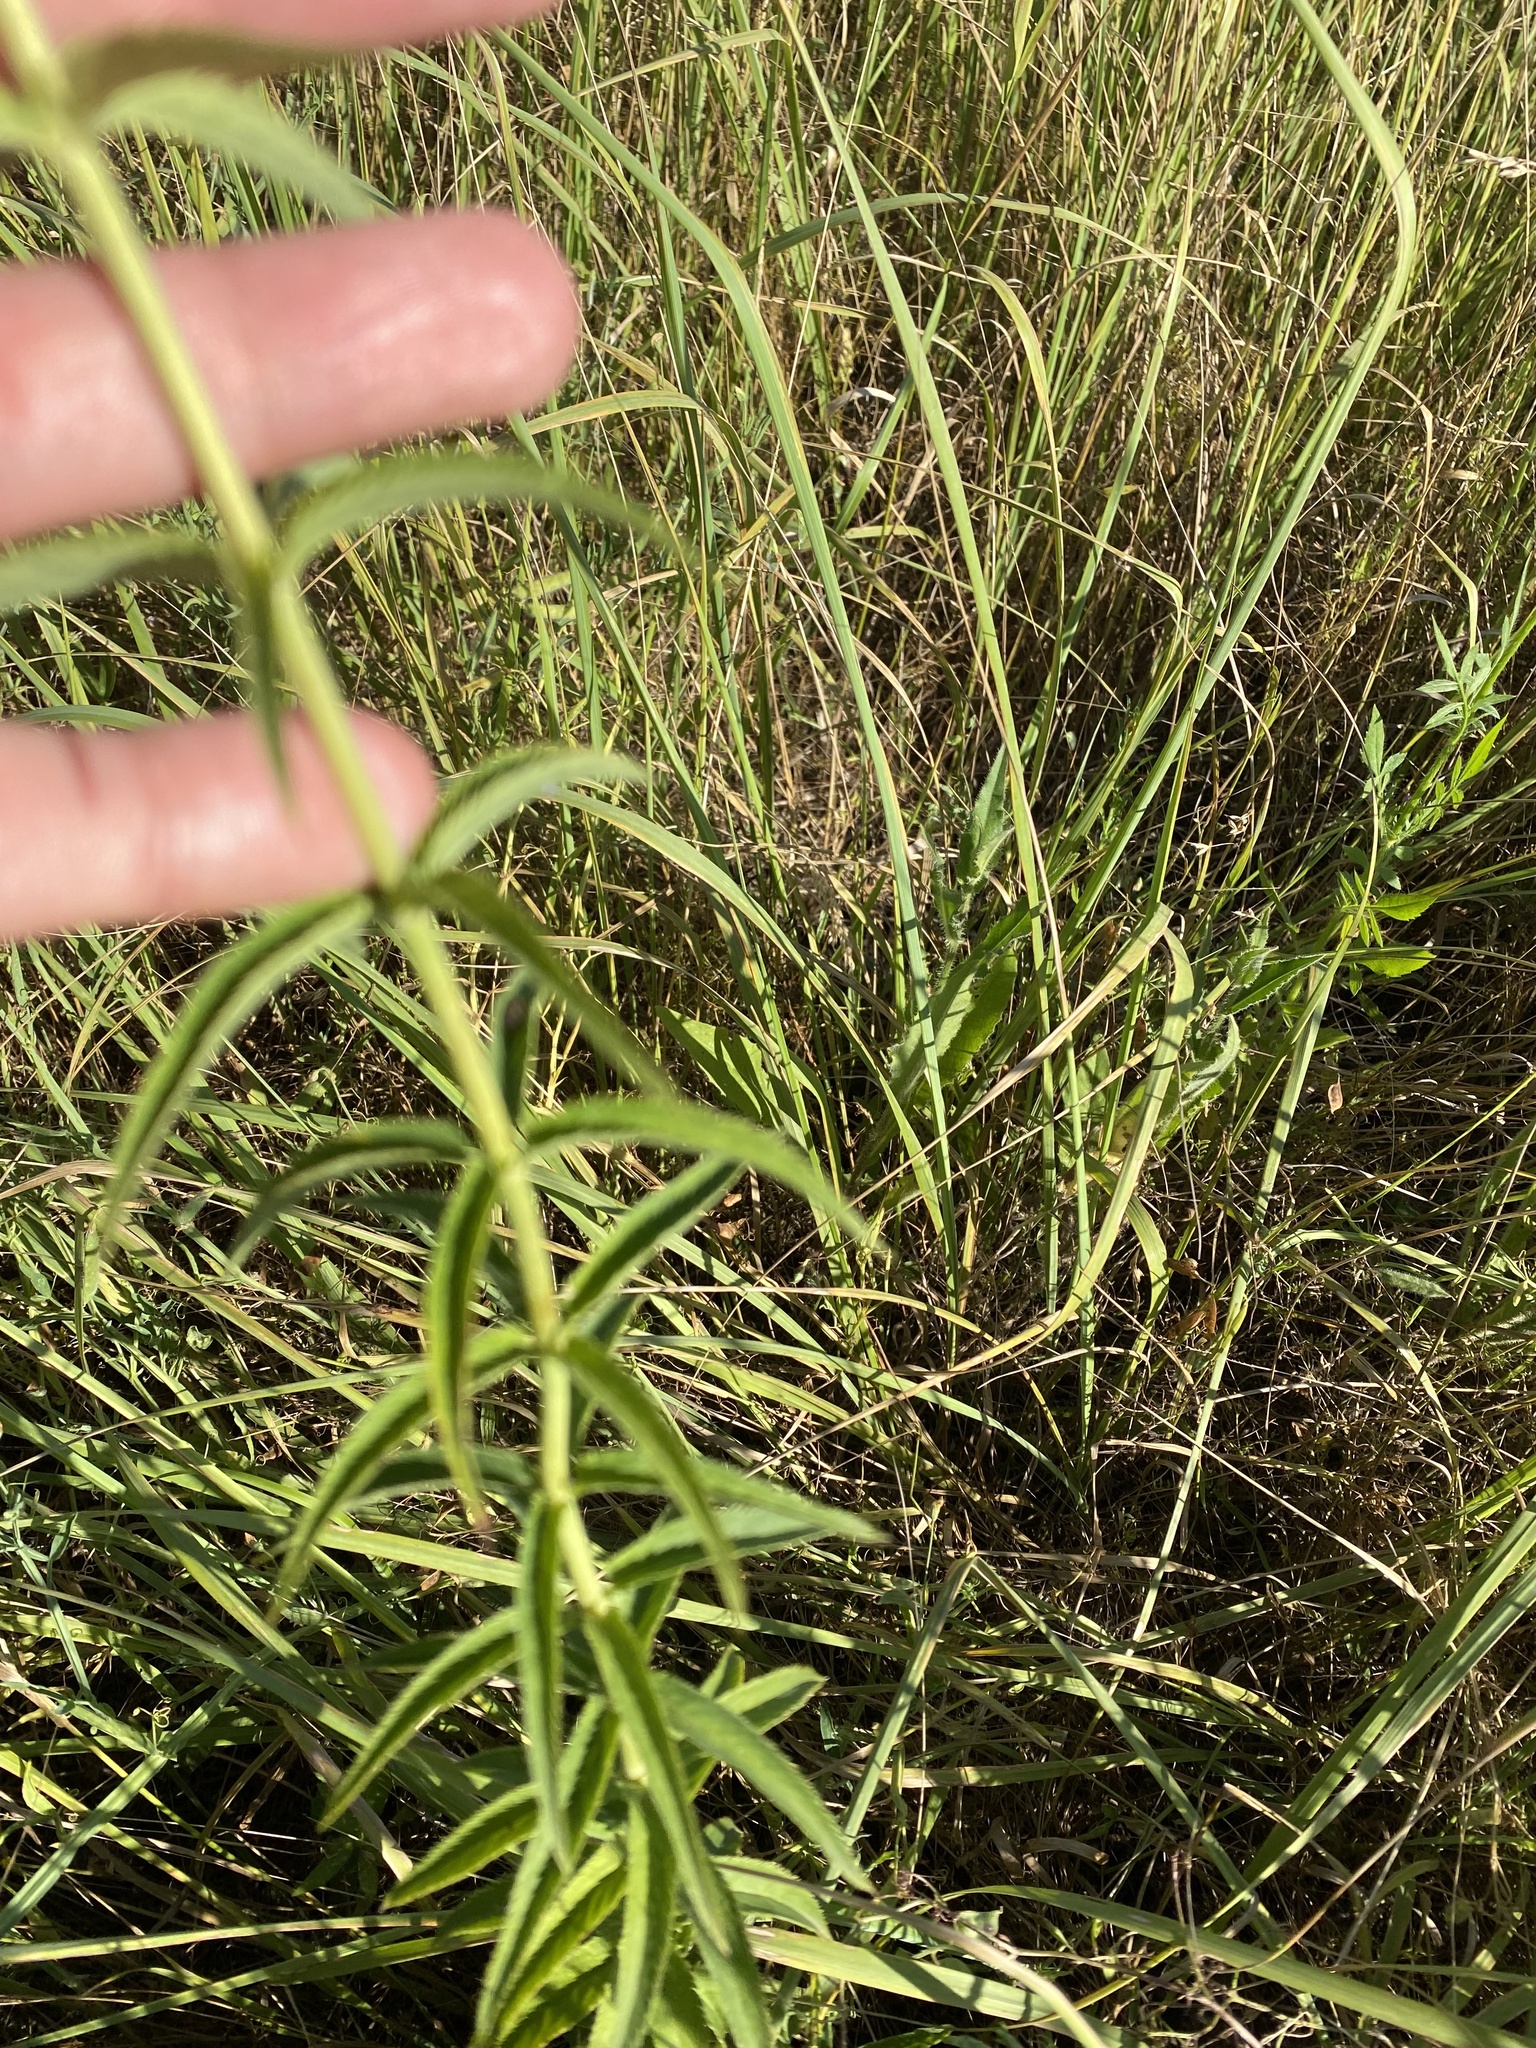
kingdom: Plantae
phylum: Tracheophyta
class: Magnoliopsida
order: Lamiales
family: Plantaginaceae
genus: Veronica
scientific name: Veronica longifolia
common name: Garden speedwell
